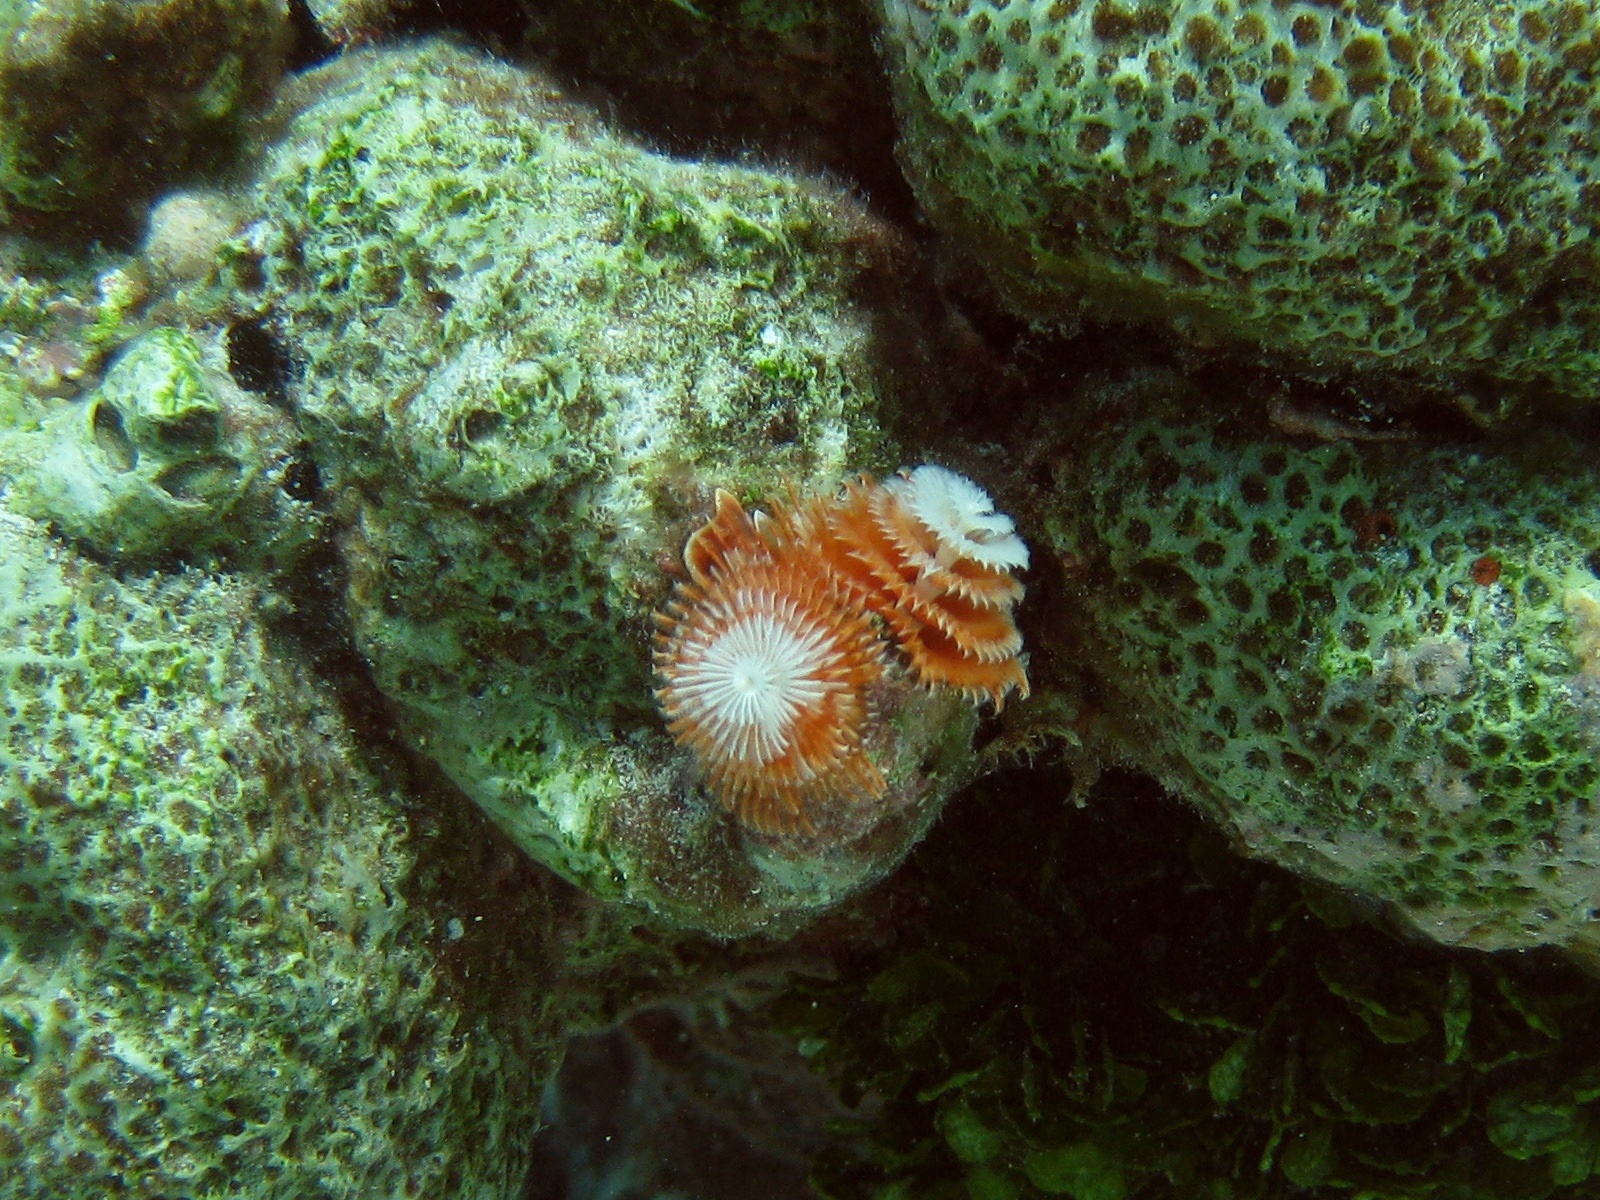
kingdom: Animalia
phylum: Annelida
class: Polychaeta
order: Sabellida
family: Serpulidae
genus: Spirobranchus
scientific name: Spirobranchus giganteus
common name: Christmas tree worm
